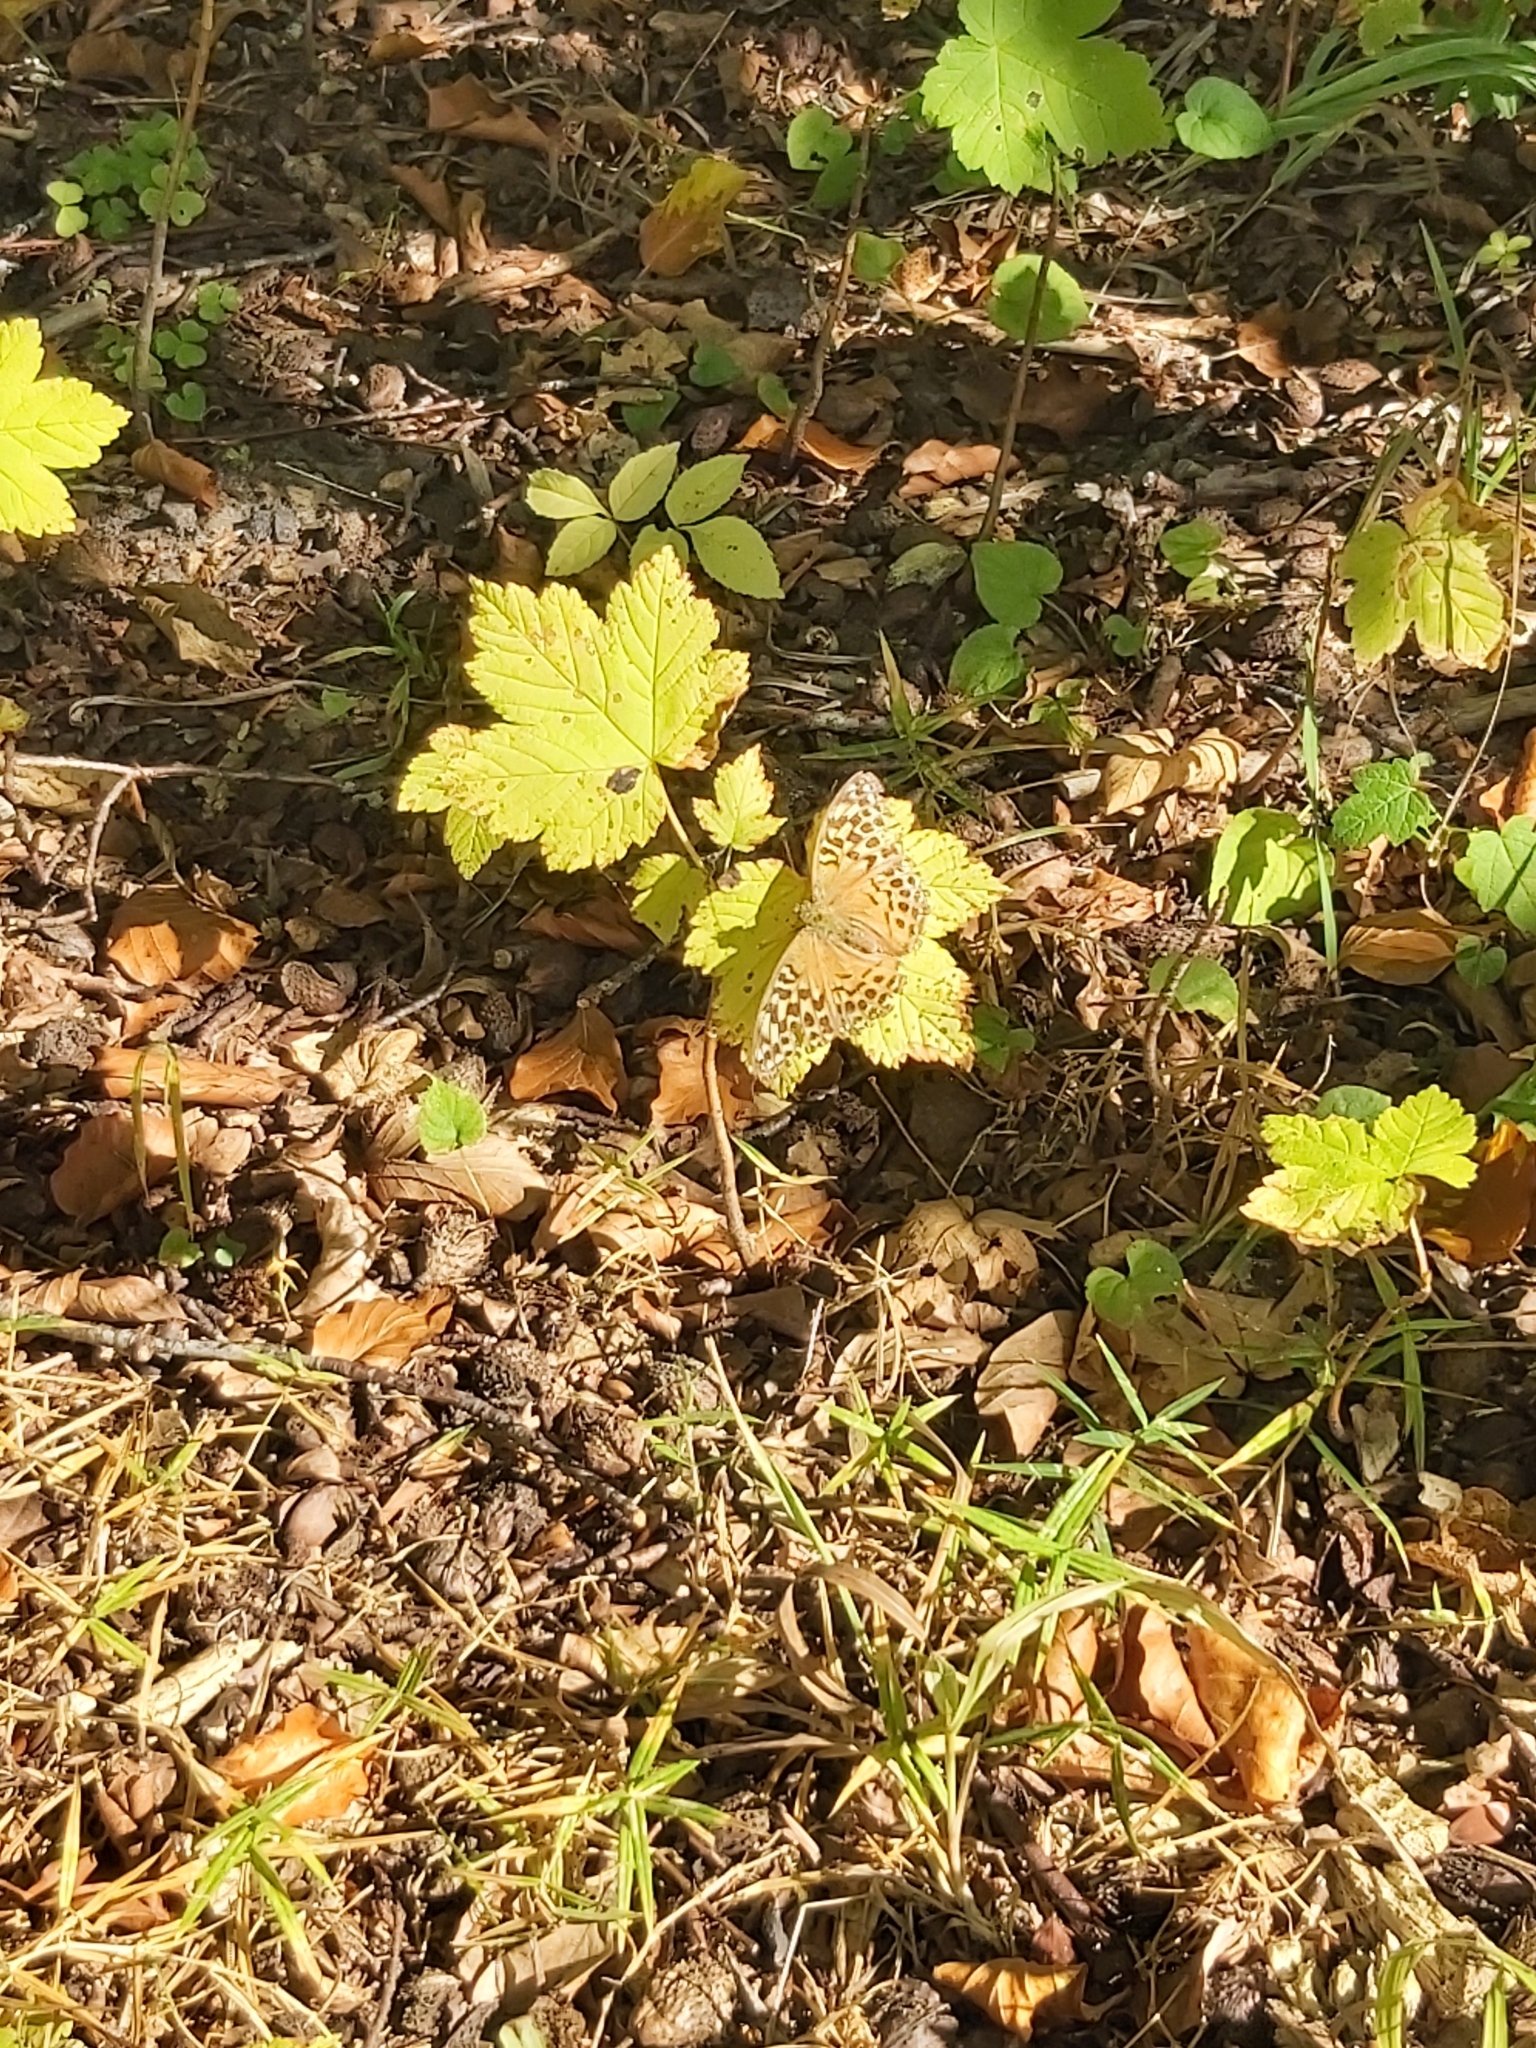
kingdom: Animalia
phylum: Arthropoda
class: Insecta
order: Lepidoptera
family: Nymphalidae
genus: Argynnis
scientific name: Argynnis paphia
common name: Silver-washed fritillary
